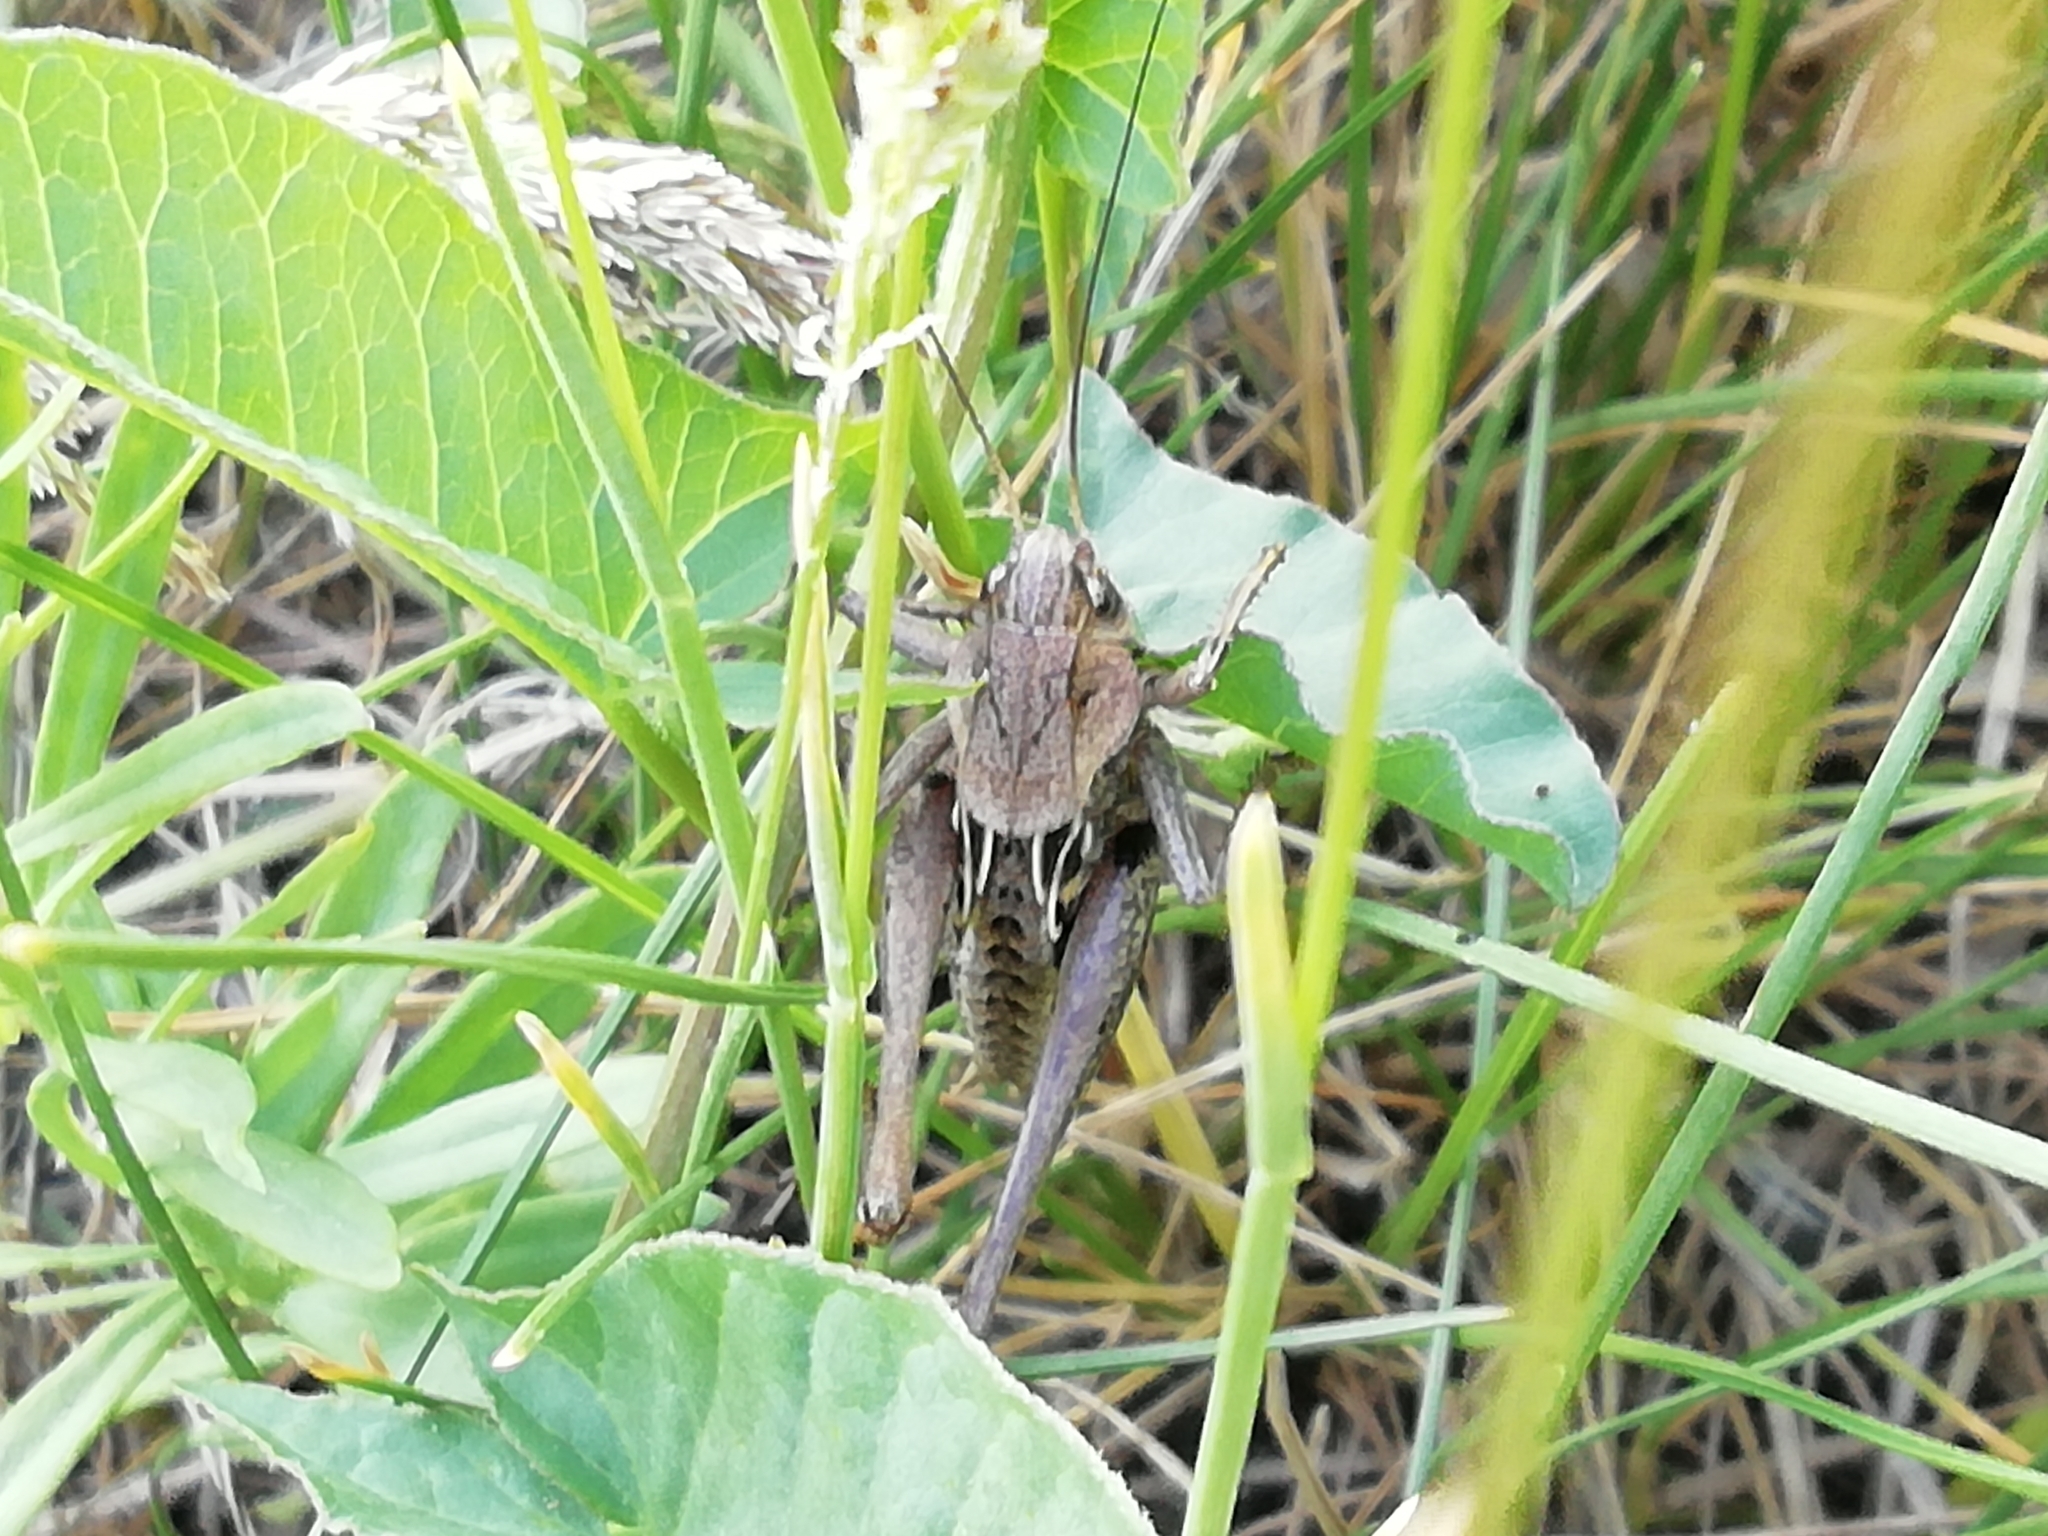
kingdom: Animalia
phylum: Arthropoda
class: Insecta
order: Orthoptera
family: Tettigoniidae
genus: Decticus
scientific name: Decticus verrucivorus
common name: Wart-biter
